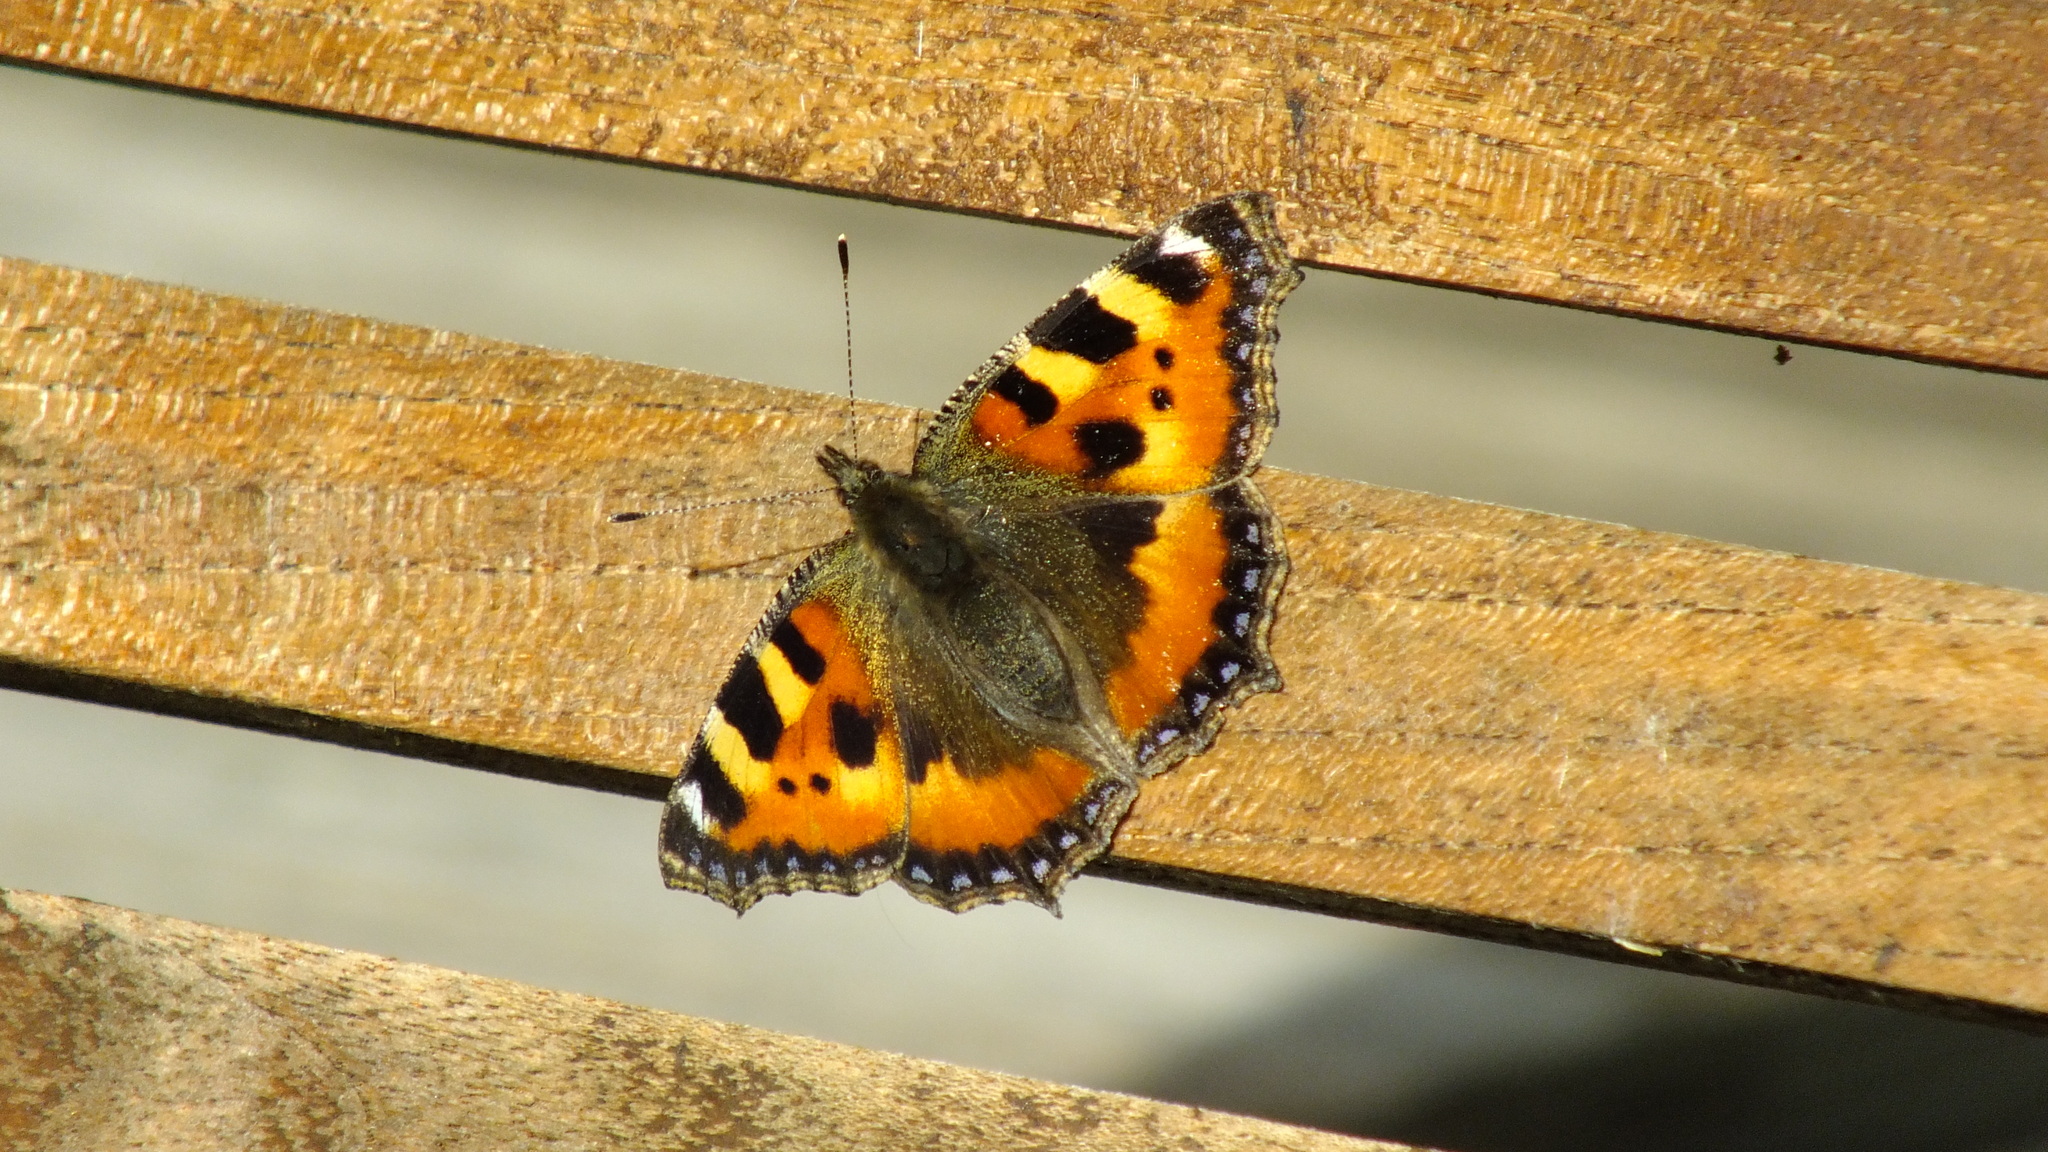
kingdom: Animalia
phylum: Arthropoda
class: Insecta
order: Lepidoptera
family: Nymphalidae
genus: Aglais
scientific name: Aglais urticae
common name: Small tortoiseshell
